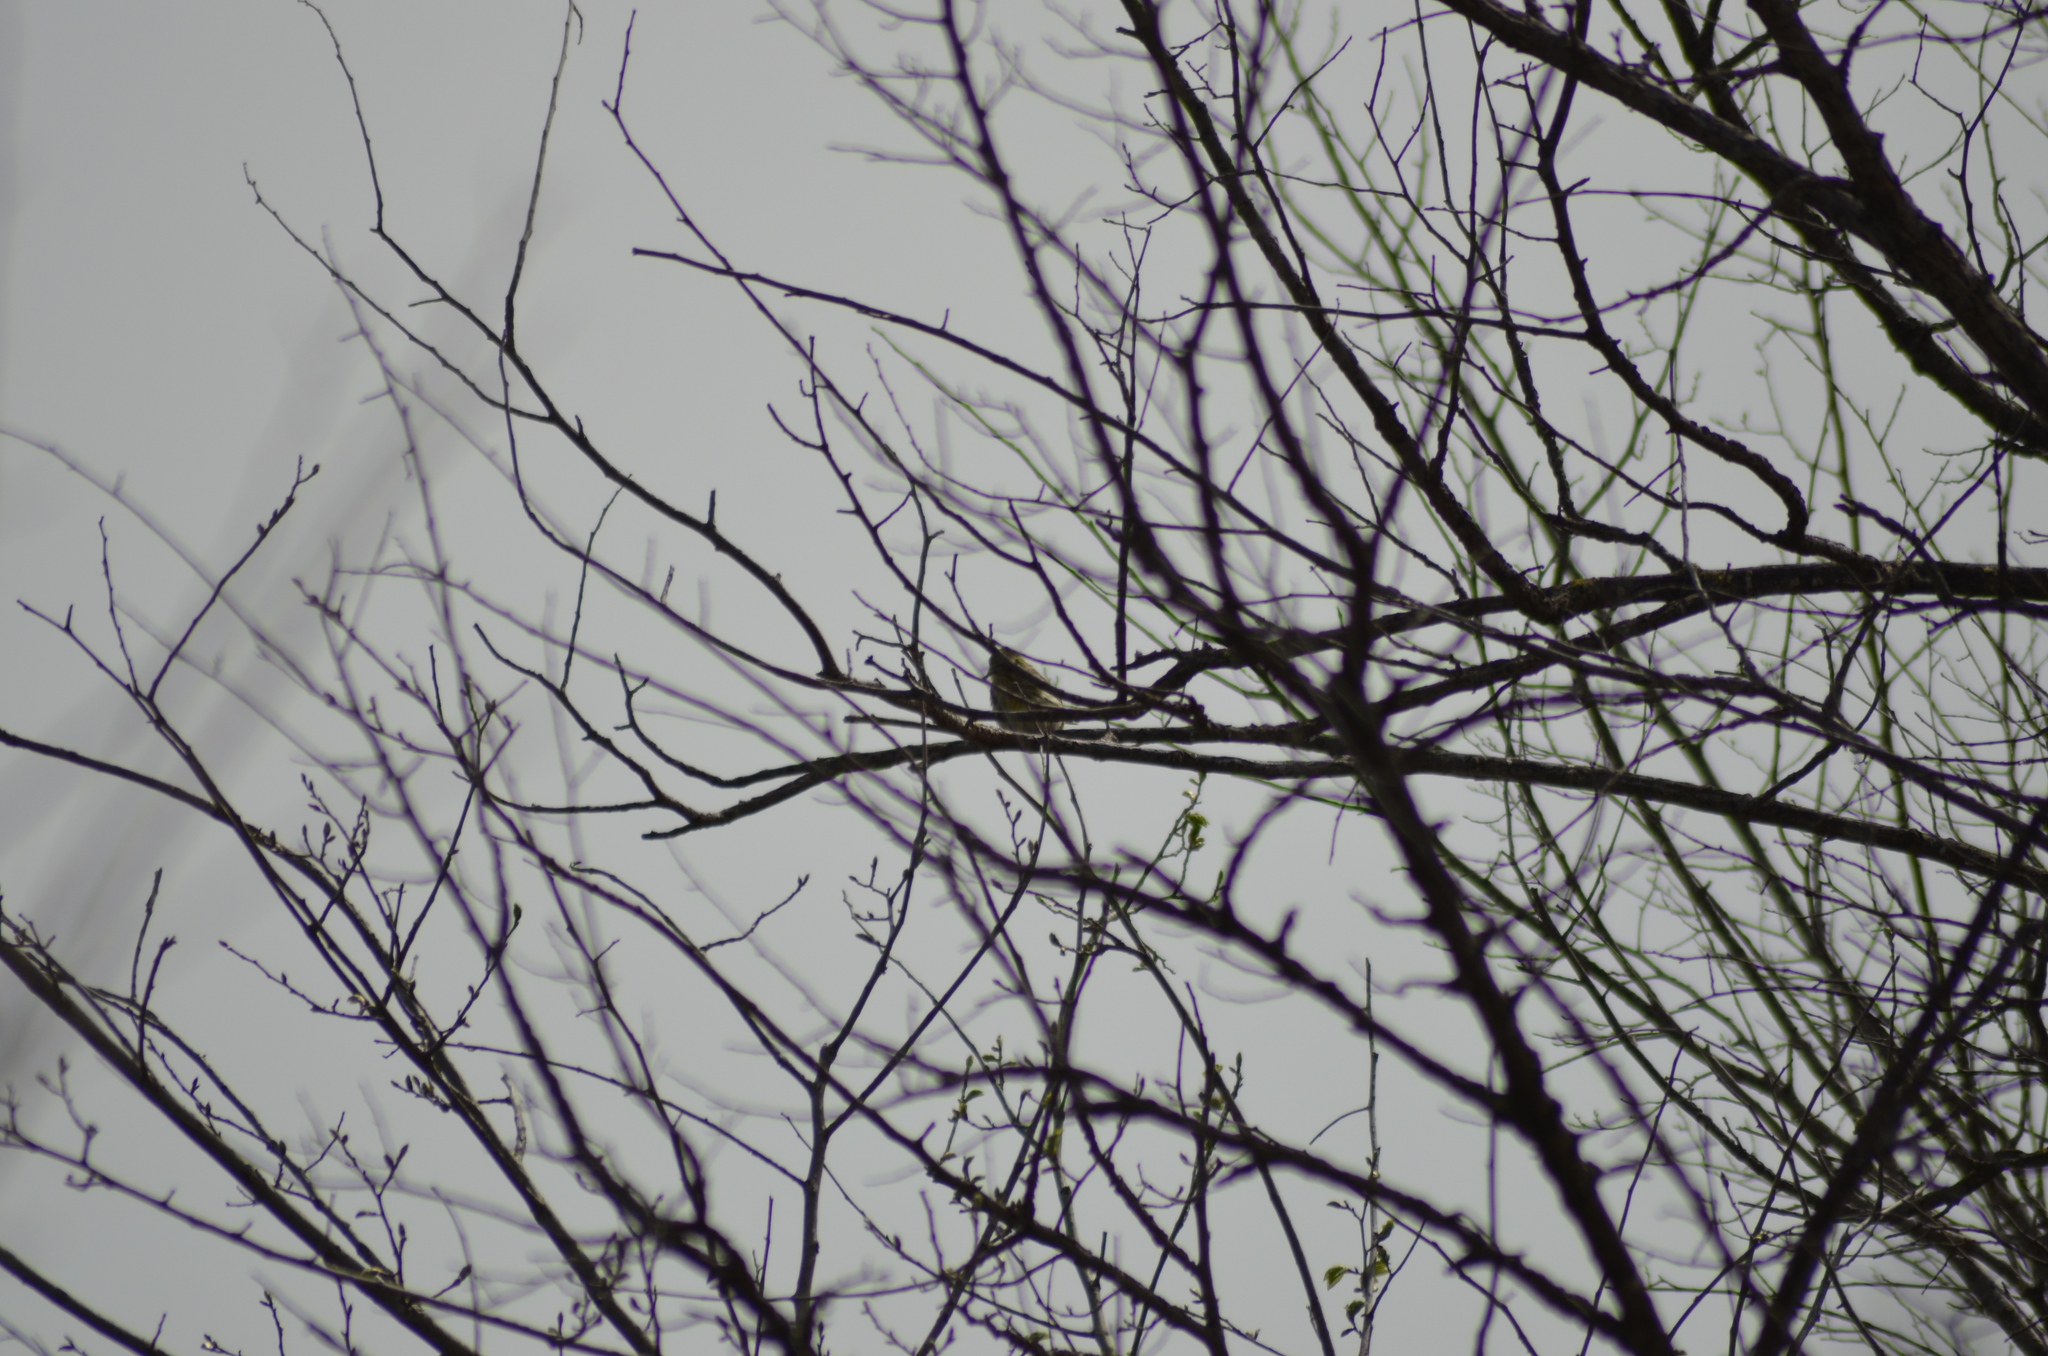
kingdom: Animalia
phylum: Chordata
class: Aves
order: Passeriformes
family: Fringillidae
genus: Serinus
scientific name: Serinus serinus
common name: European serin
